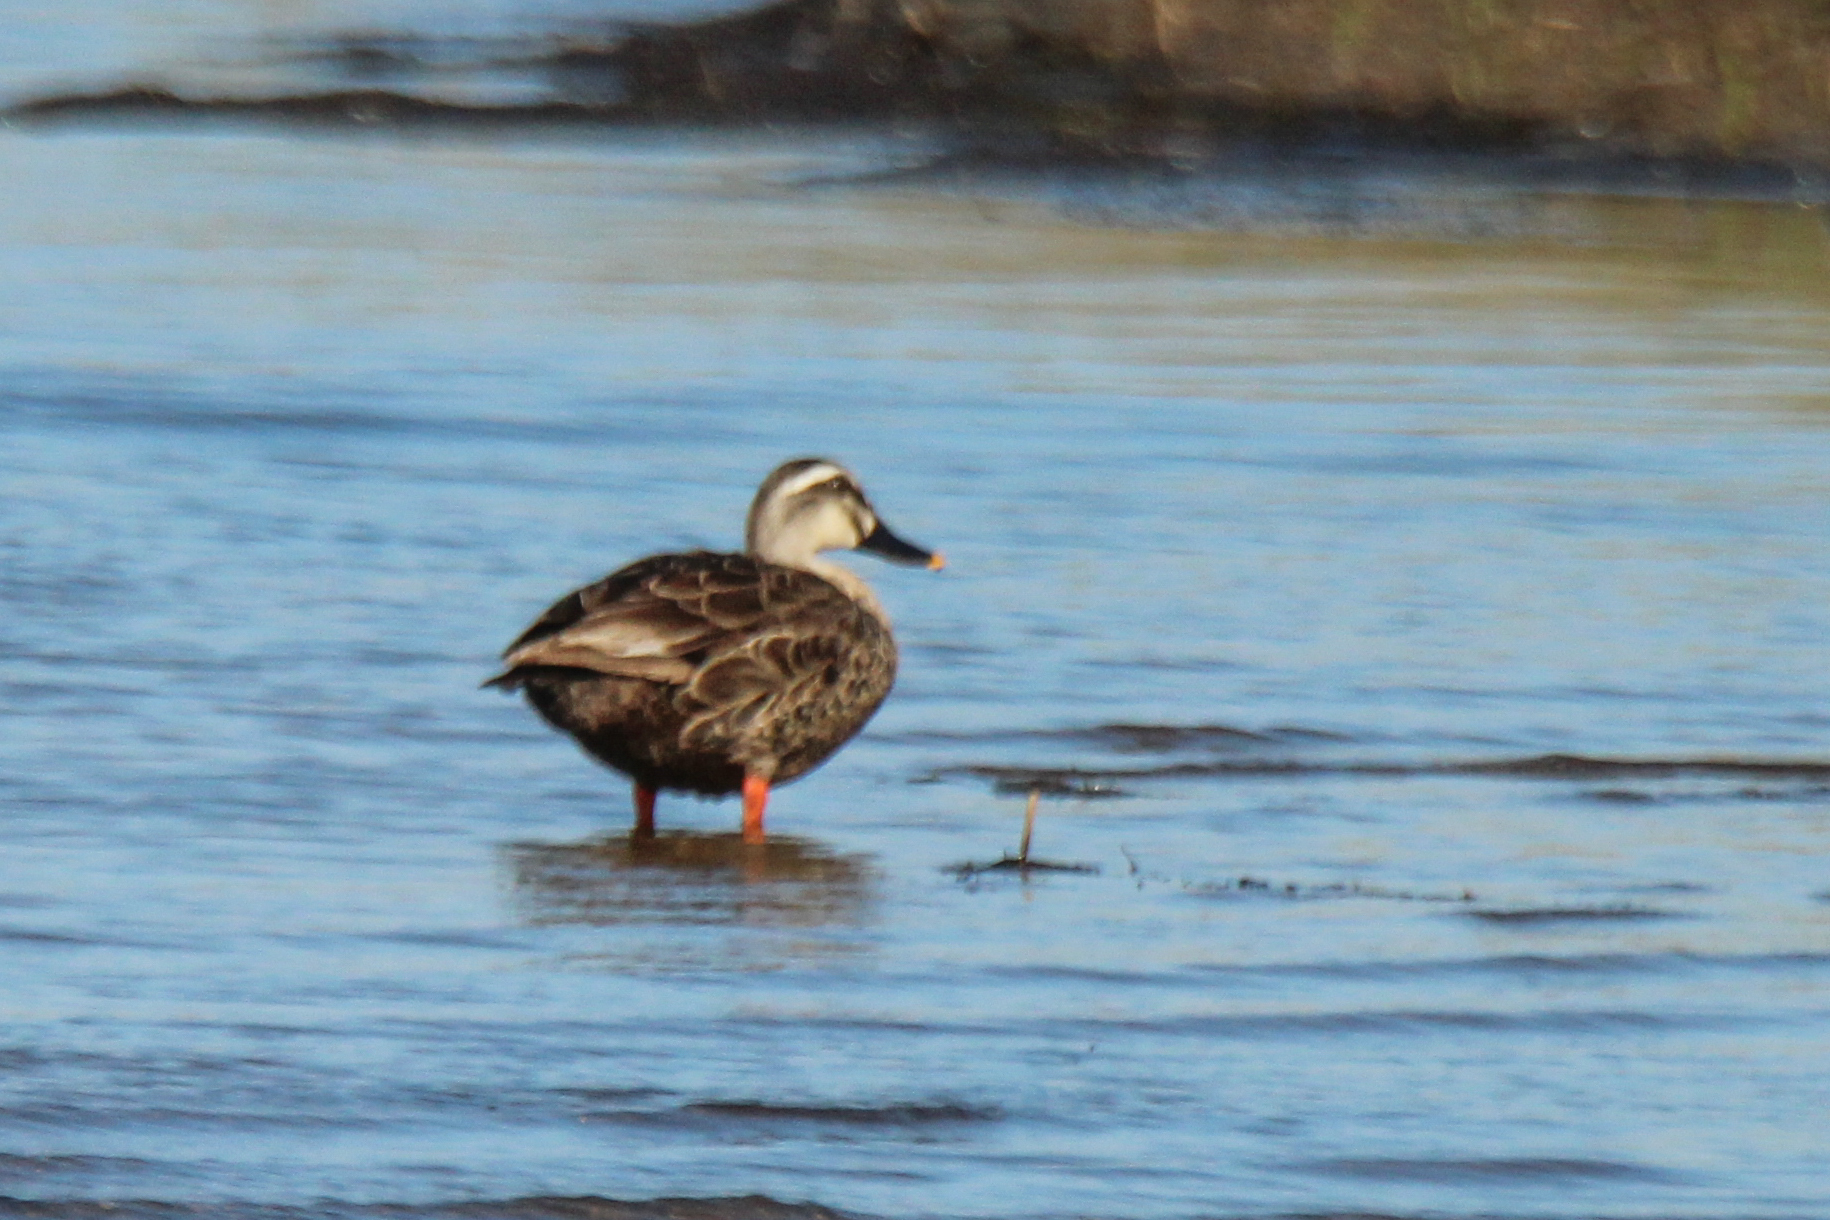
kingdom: Animalia
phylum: Chordata
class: Aves
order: Anseriformes
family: Anatidae
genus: Anas
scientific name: Anas zonorhyncha
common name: Eastern spot-billed duck
